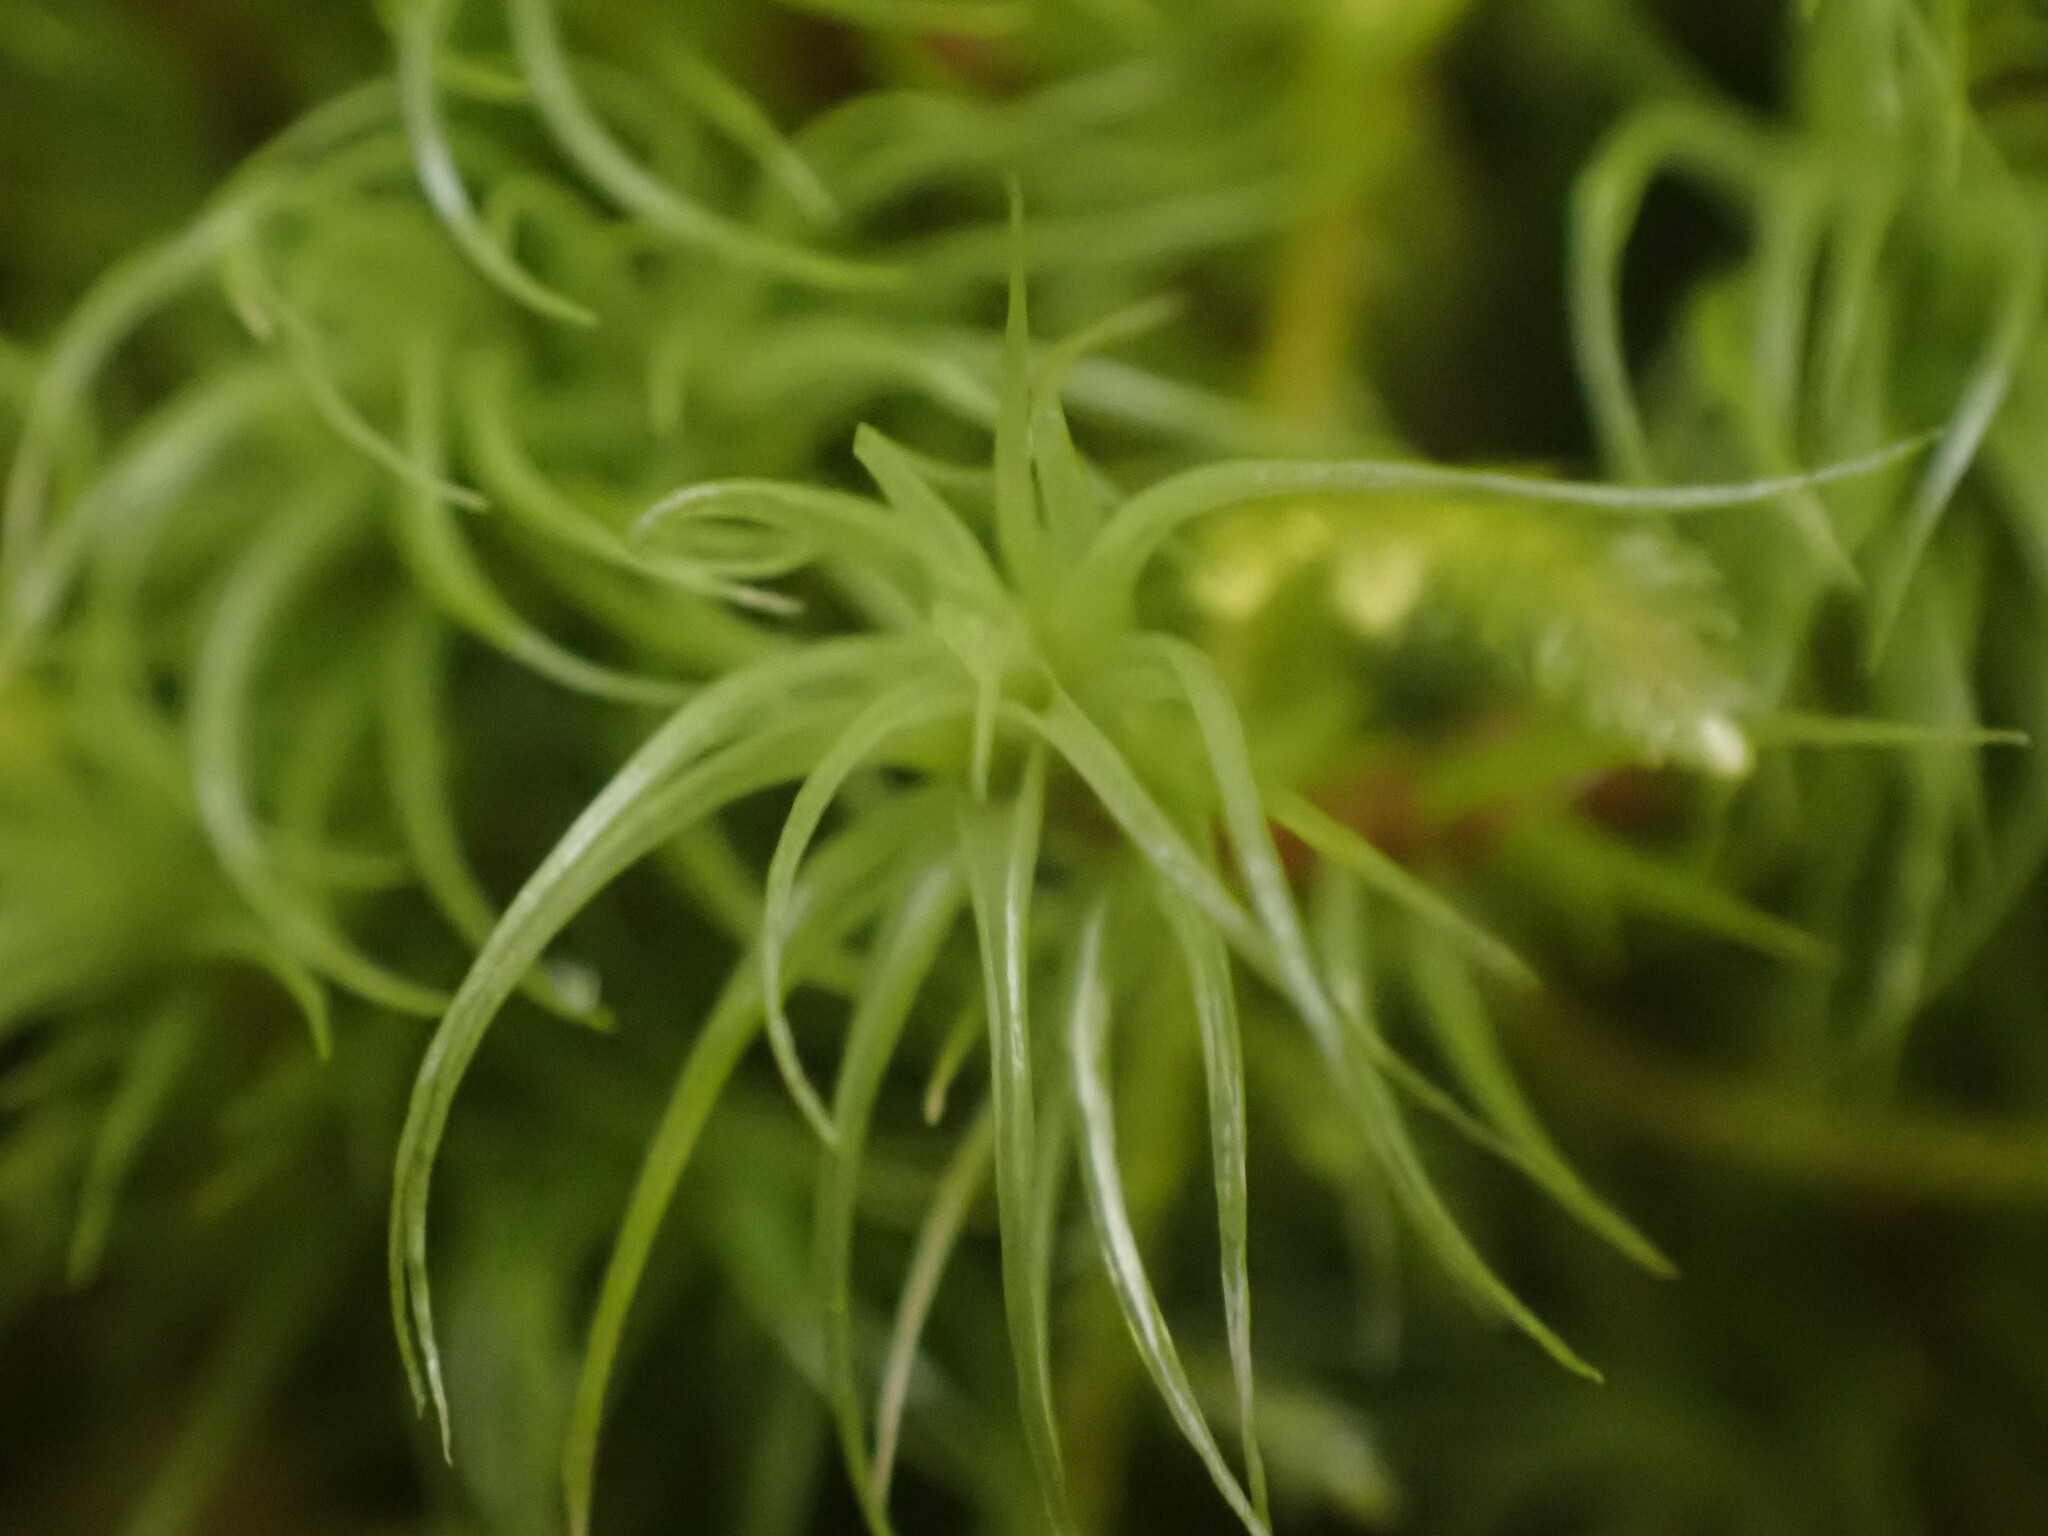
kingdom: Plantae
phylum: Bryophyta
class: Bryopsida
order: Dicranales
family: Dicranaceae
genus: Dicranum
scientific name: Dicranum fuscescens
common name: Curly heron's-bill moss
